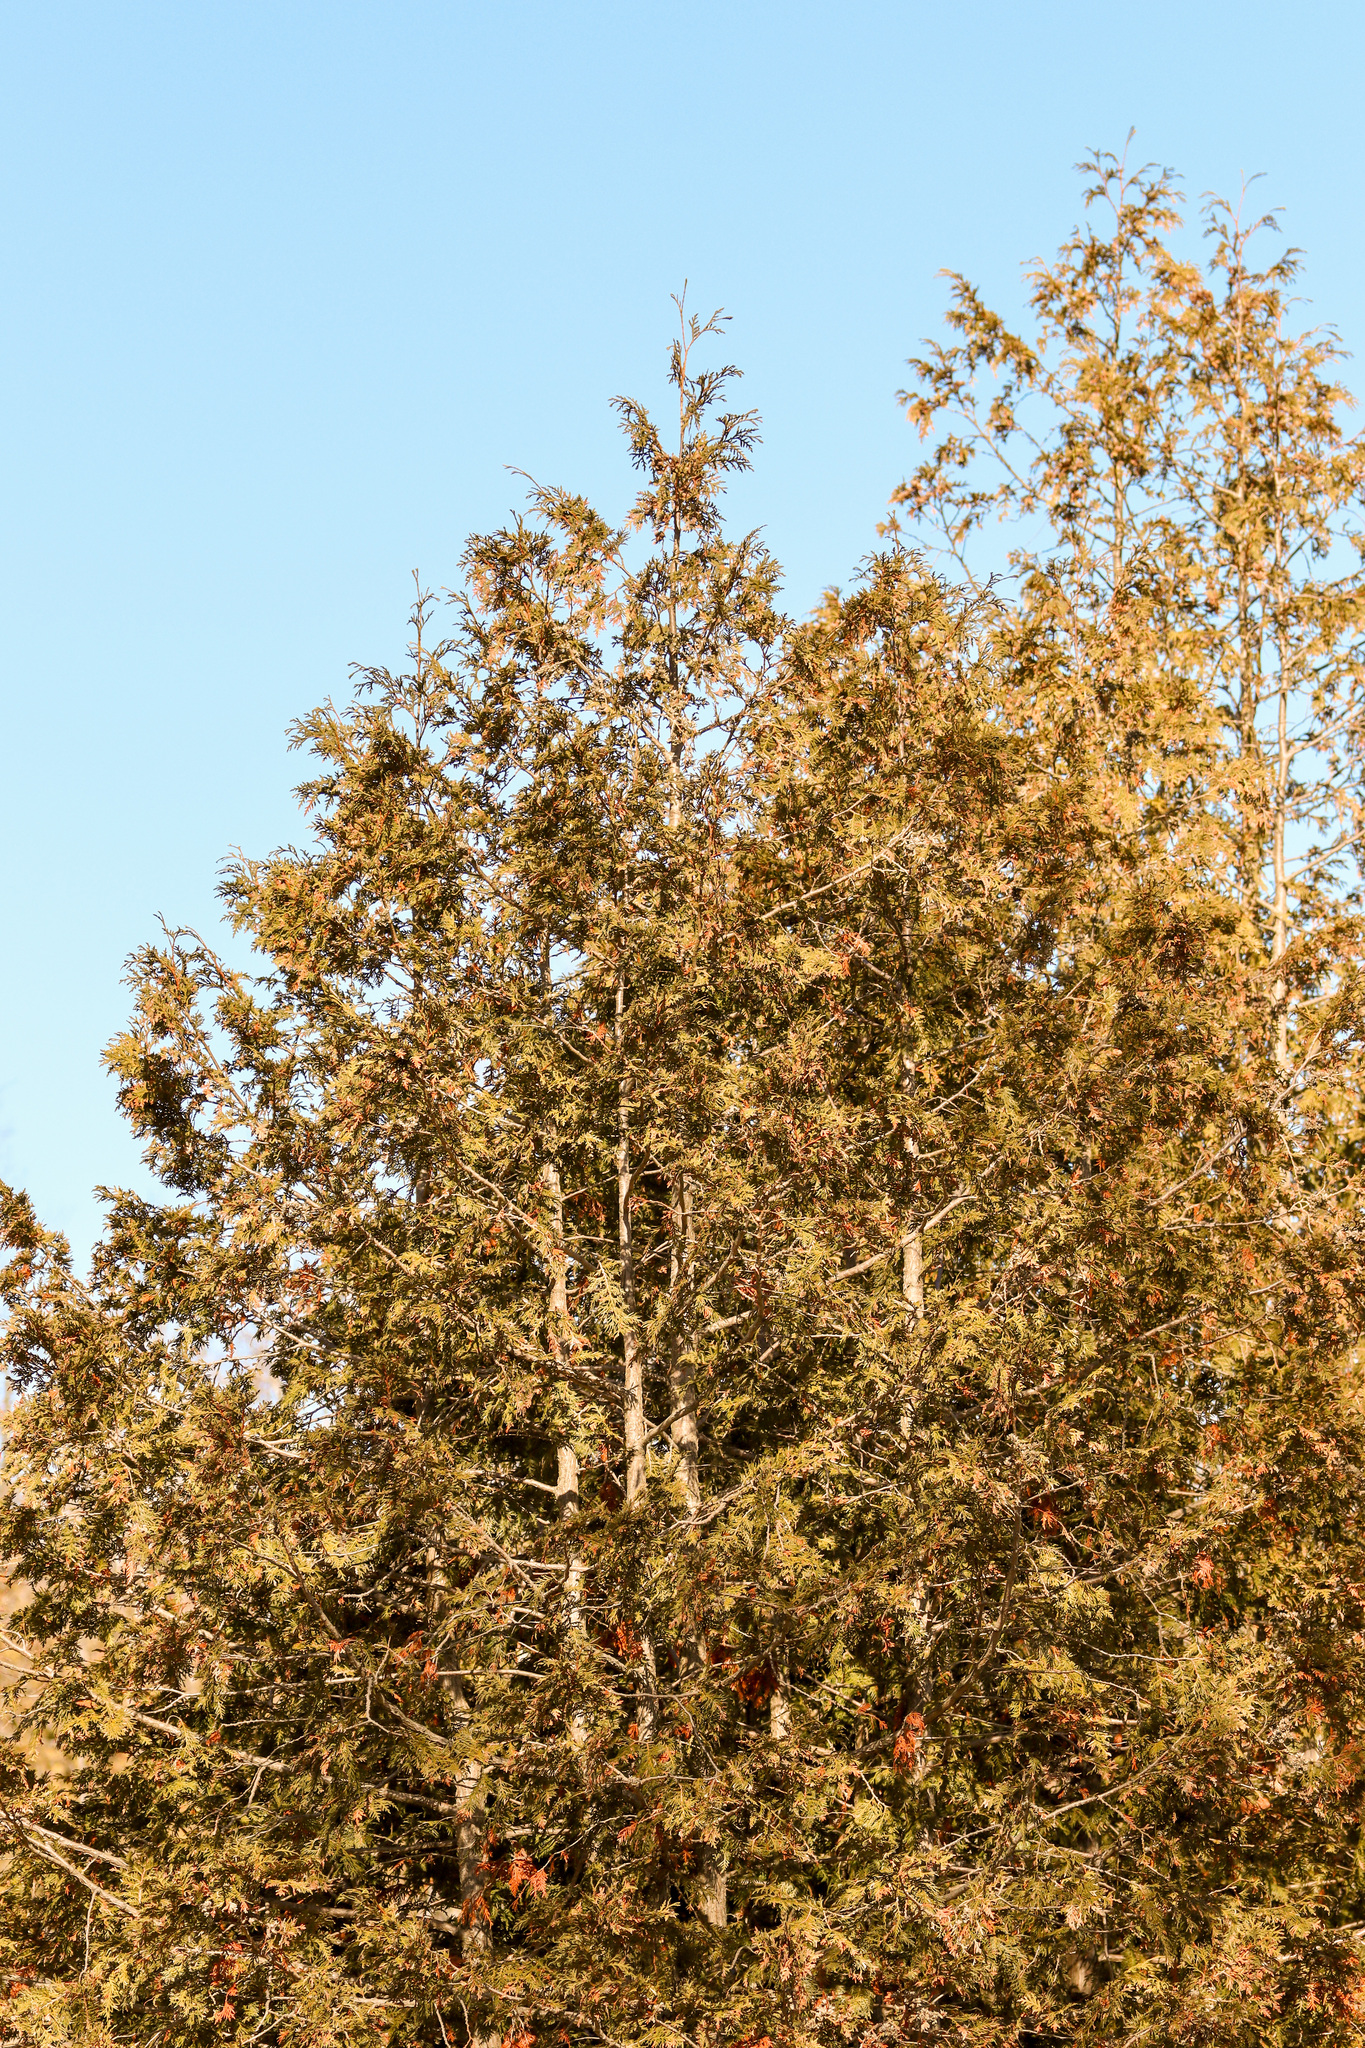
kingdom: Plantae
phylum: Tracheophyta
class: Pinopsida
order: Pinales
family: Cupressaceae
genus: Thuja
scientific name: Thuja occidentalis
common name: Northern white-cedar
